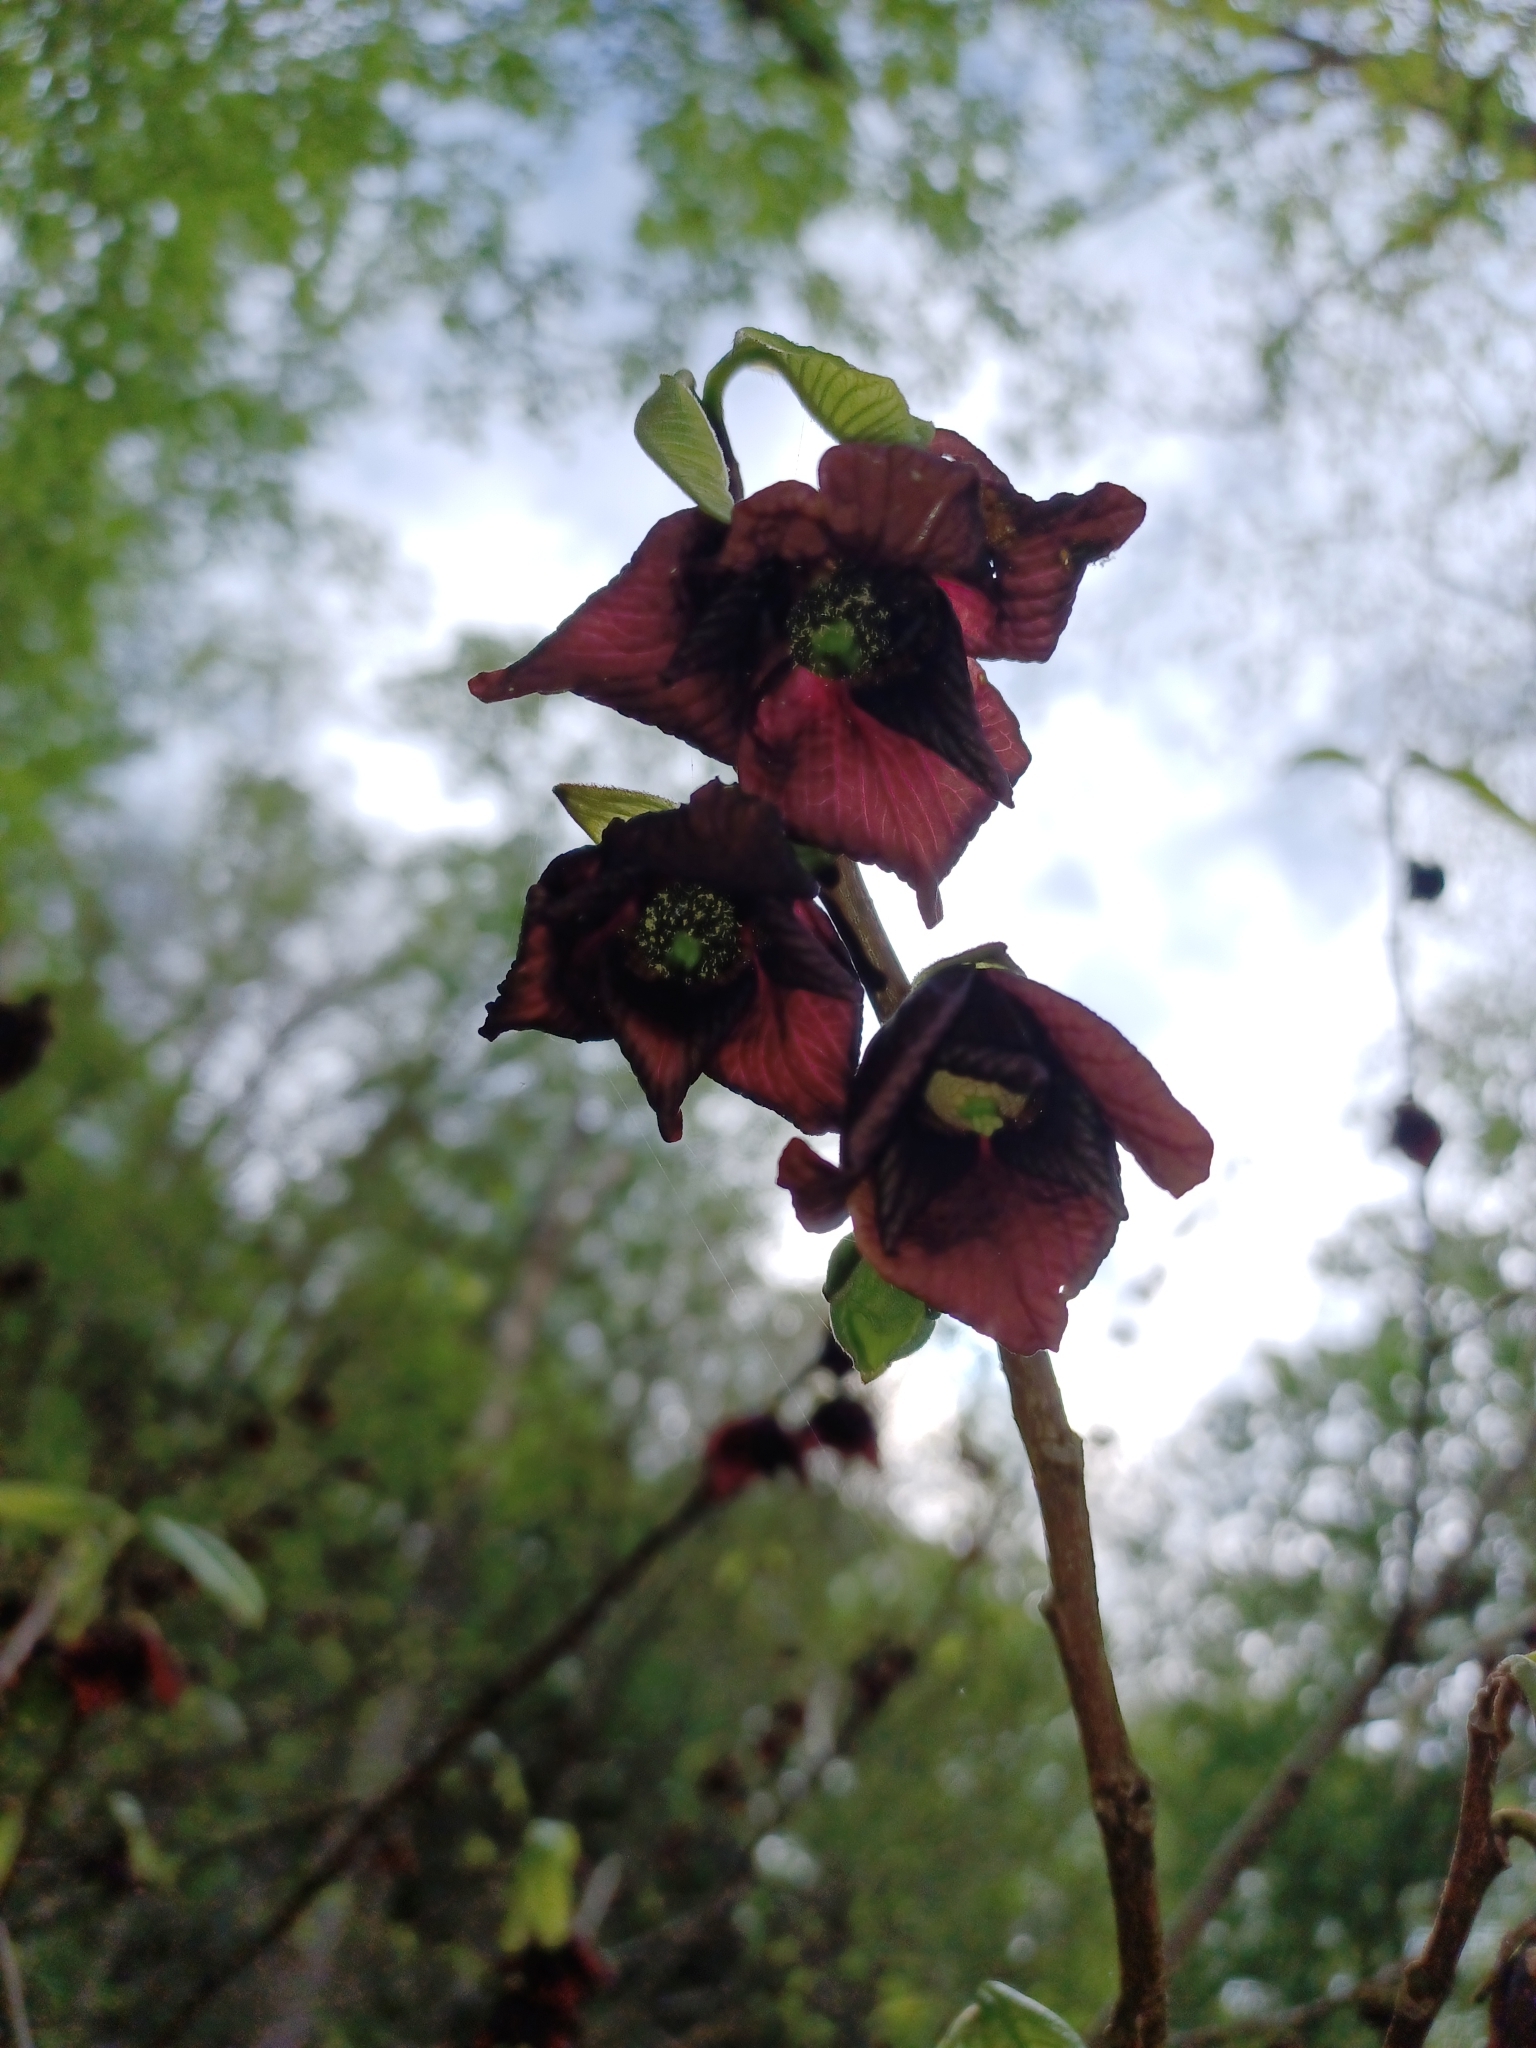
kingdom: Plantae
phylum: Tracheophyta
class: Magnoliopsida
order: Magnoliales
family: Annonaceae
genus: Asimina
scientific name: Asimina triloba
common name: Dog-banana
